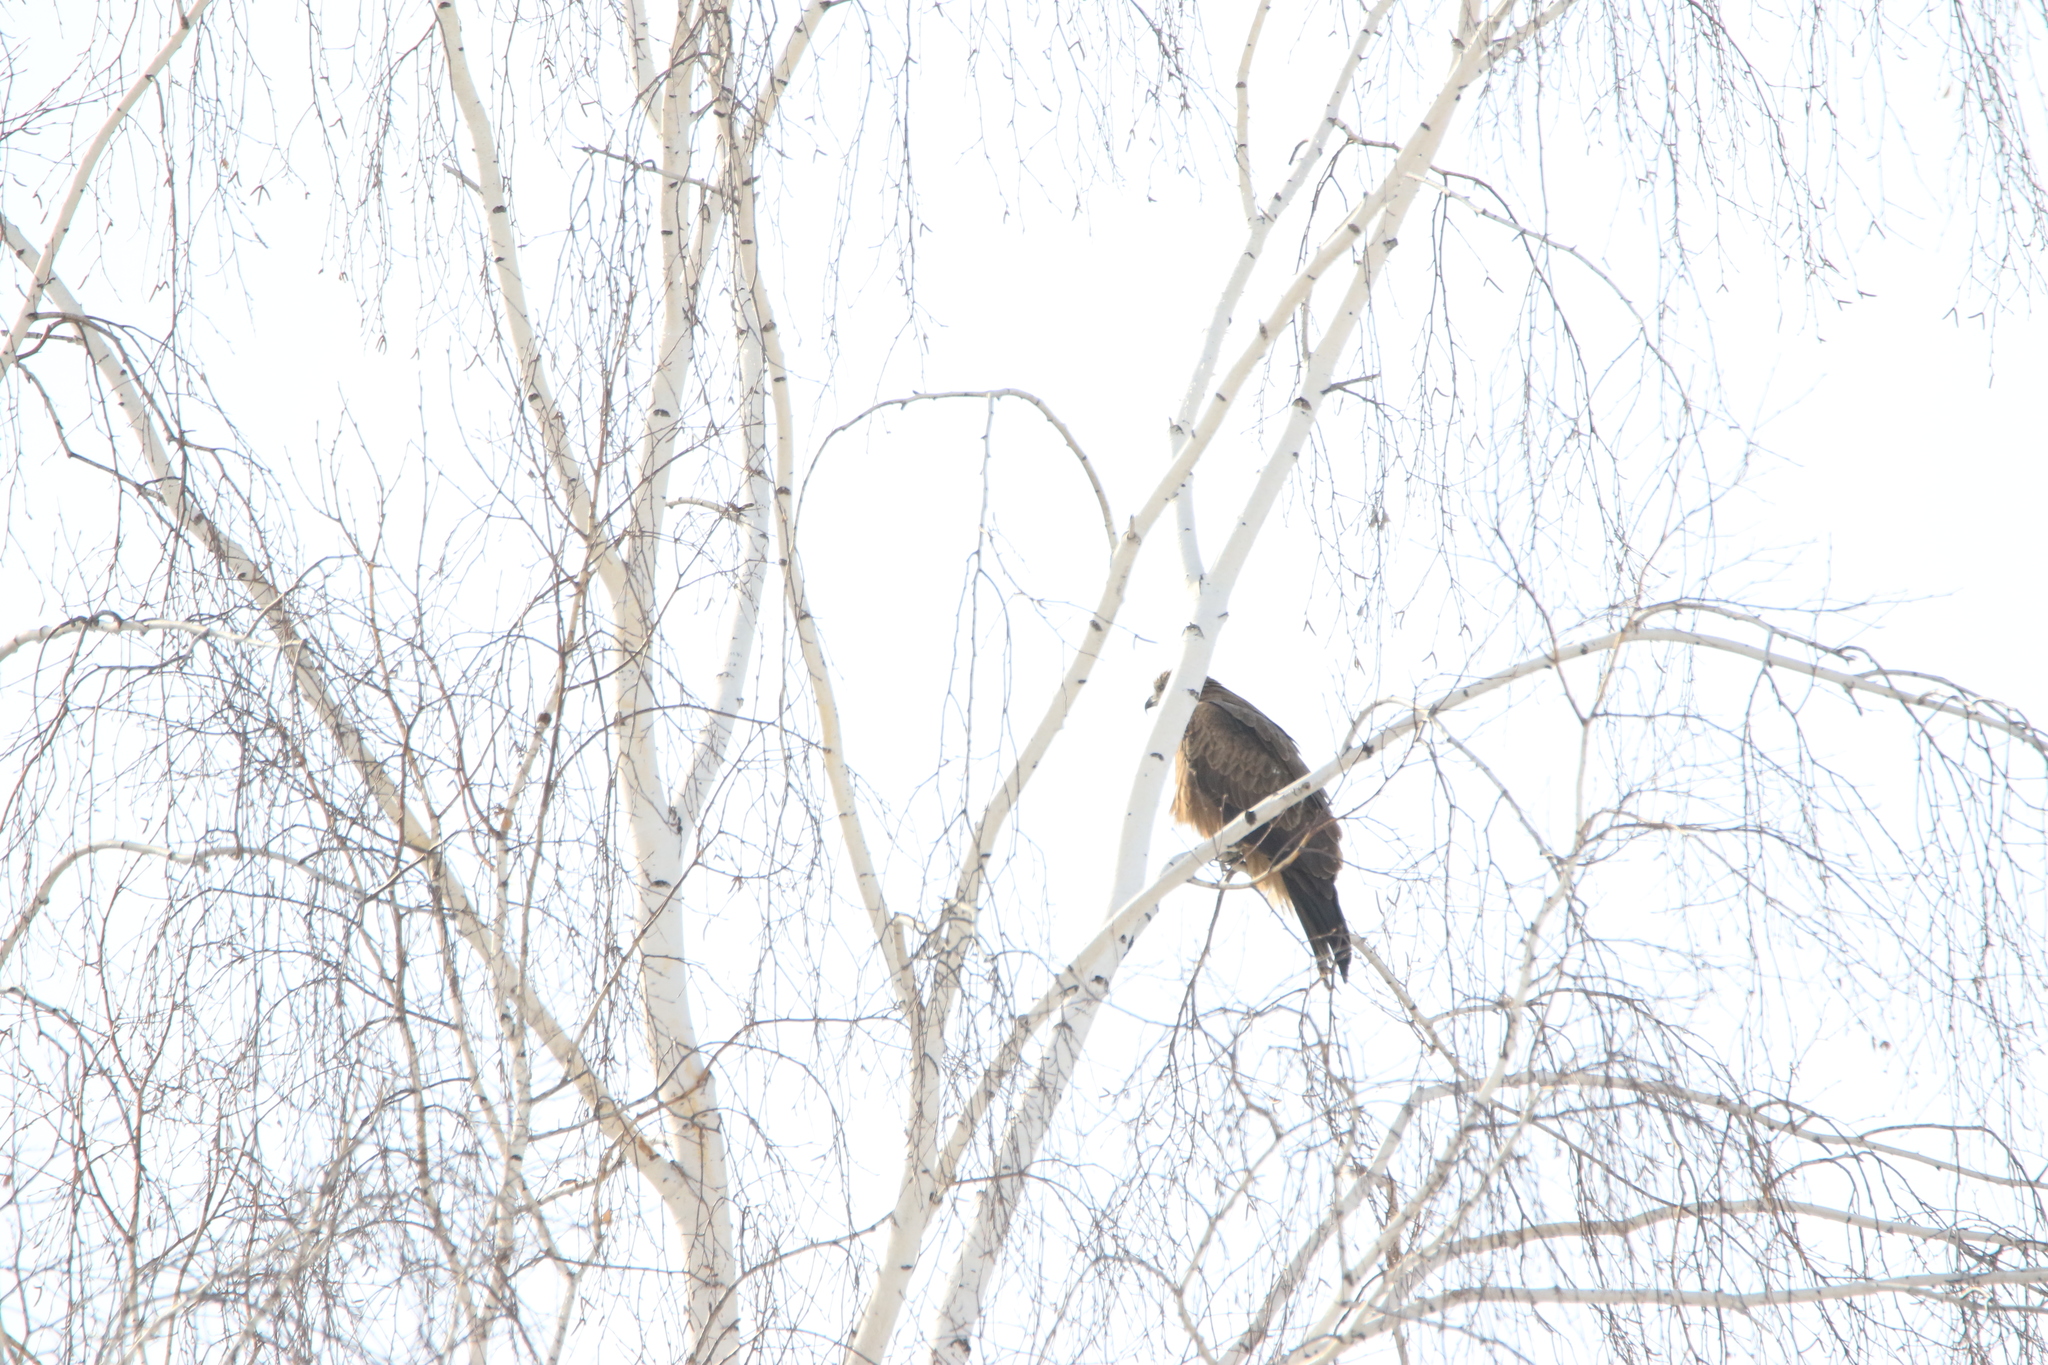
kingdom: Animalia
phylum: Chordata
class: Aves
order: Accipitriformes
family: Accipitridae
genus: Milvus
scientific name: Milvus migrans
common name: Black kite
